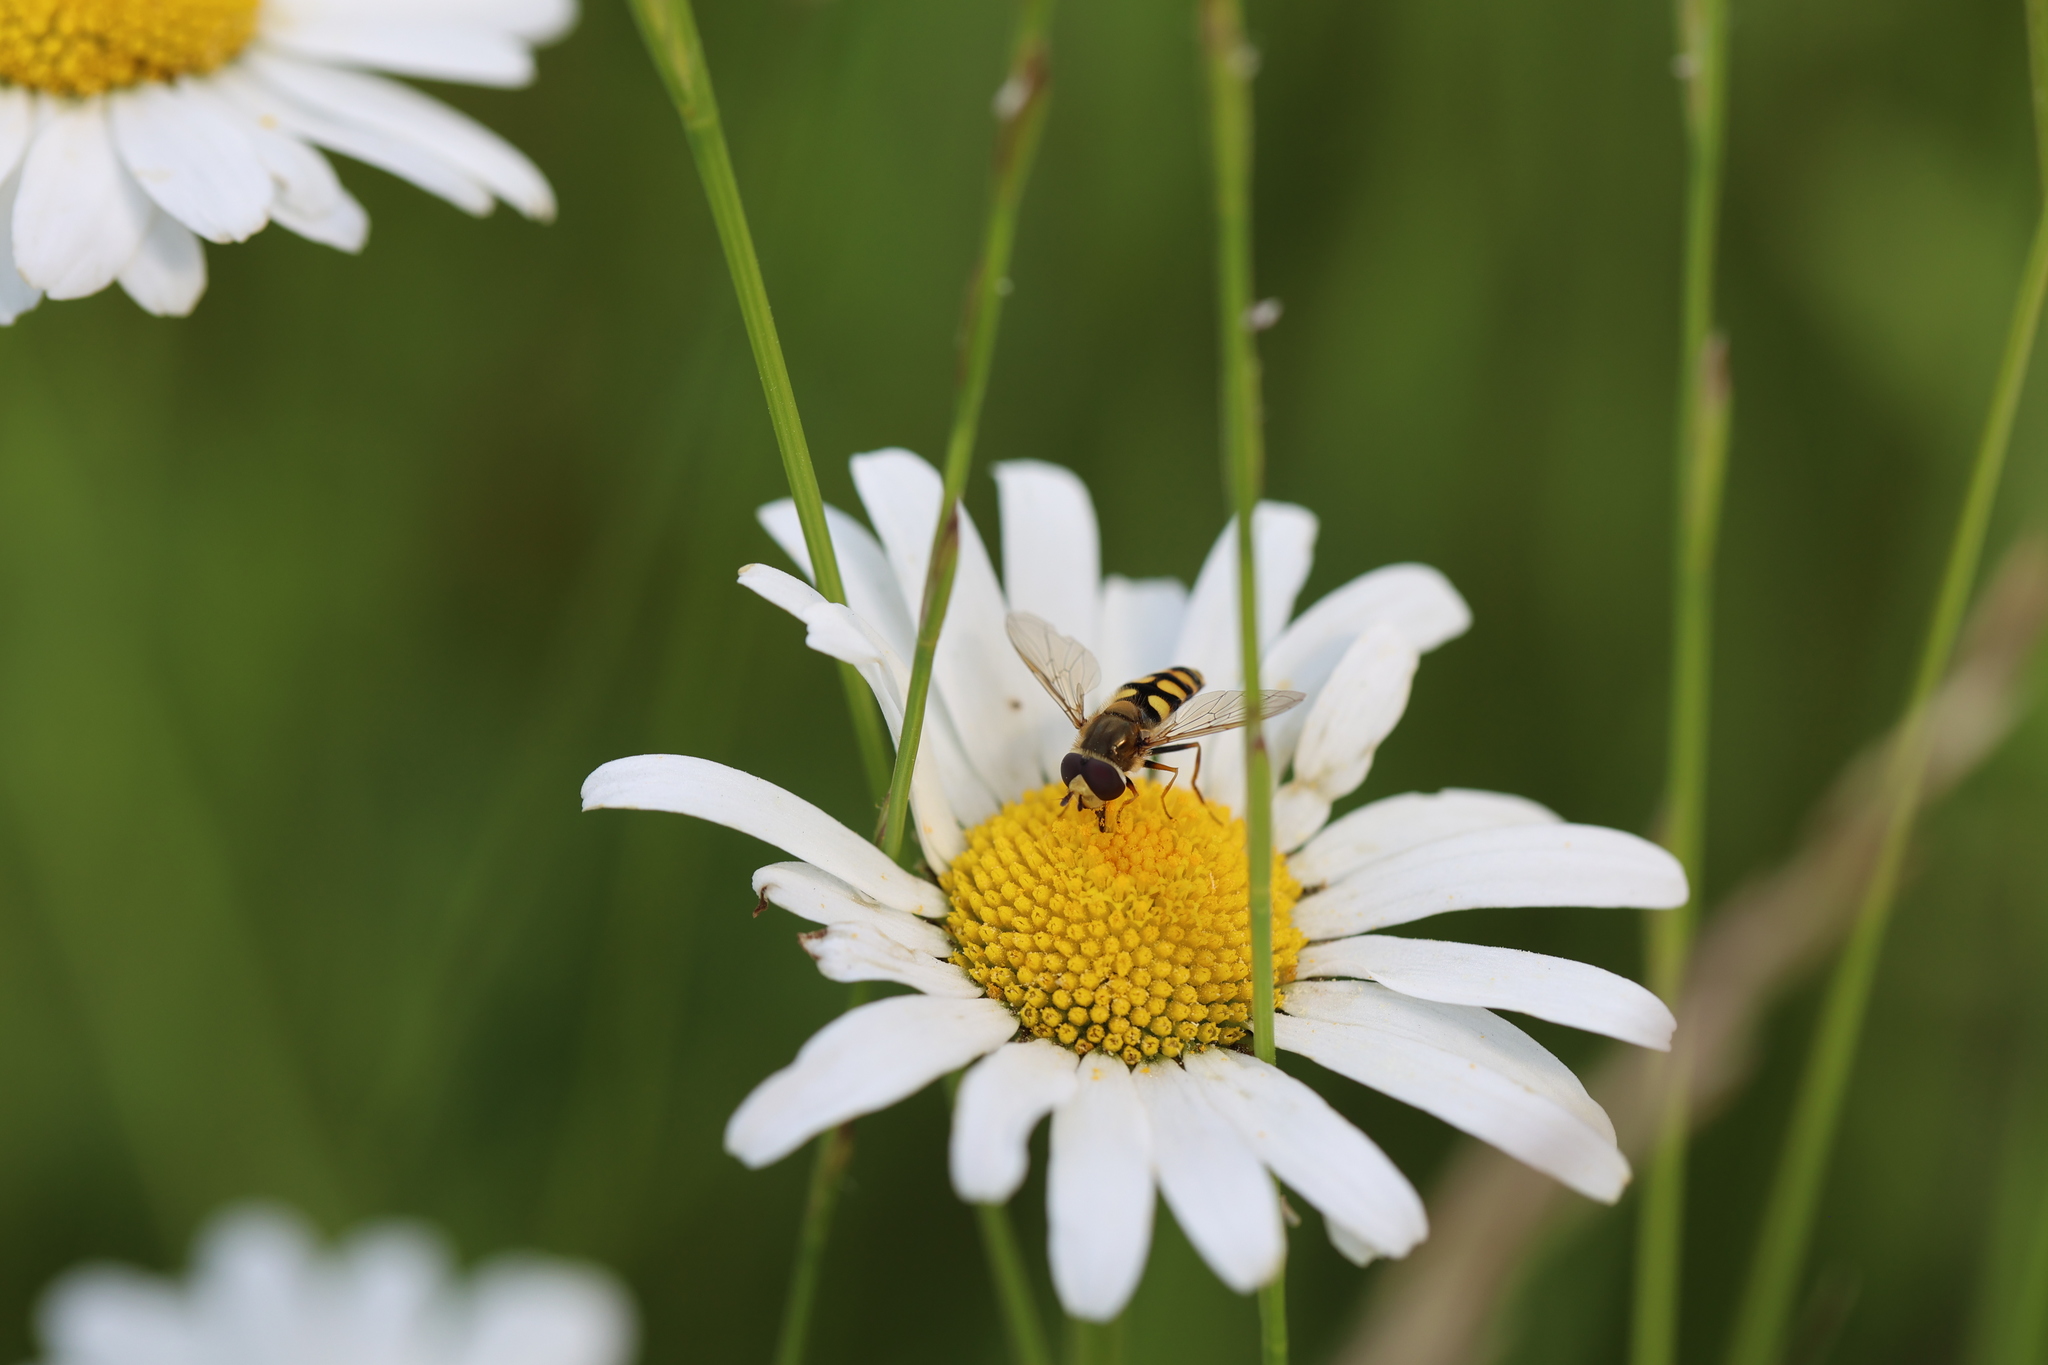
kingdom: Animalia
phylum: Arthropoda
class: Insecta
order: Diptera
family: Syrphidae
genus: Eupeodes
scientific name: Eupeodes corollae
